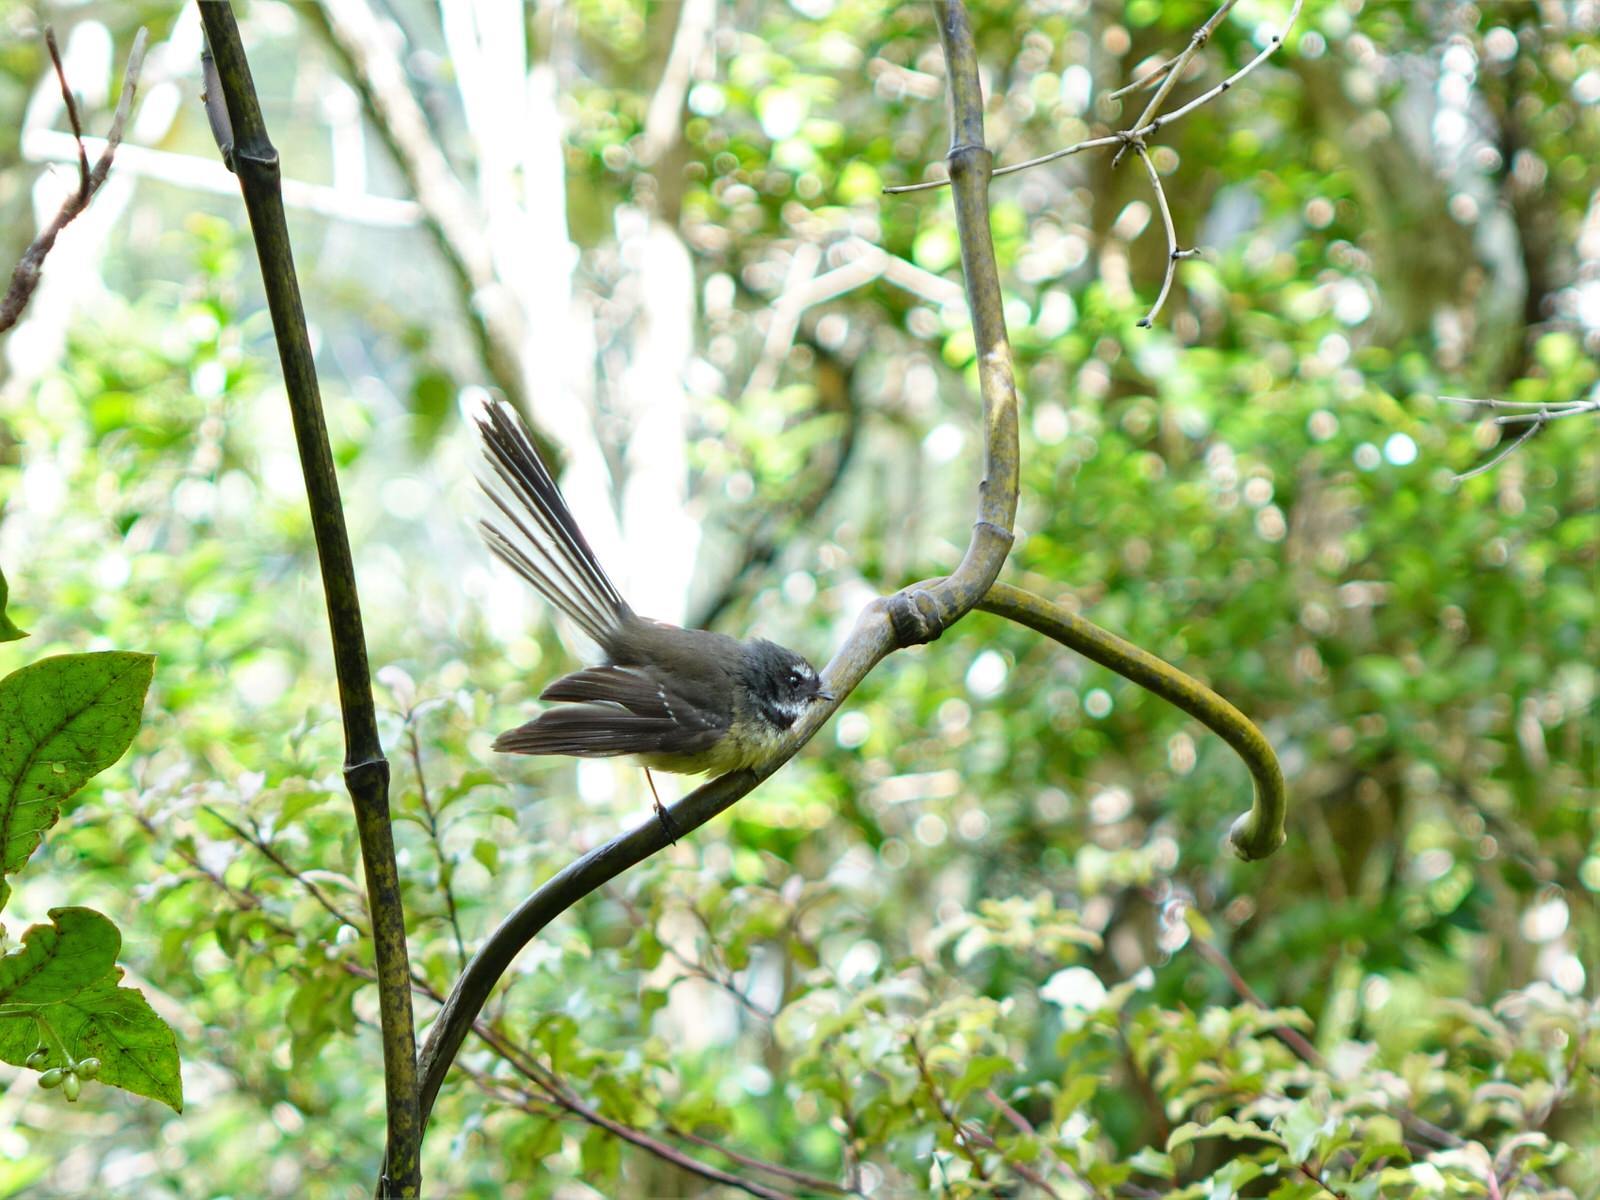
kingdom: Animalia
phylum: Chordata
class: Aves
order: Passeriformes
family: Rhipiduridae
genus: Rhipidura
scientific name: Rhipidura fuliginosa
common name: New zealand fantail
